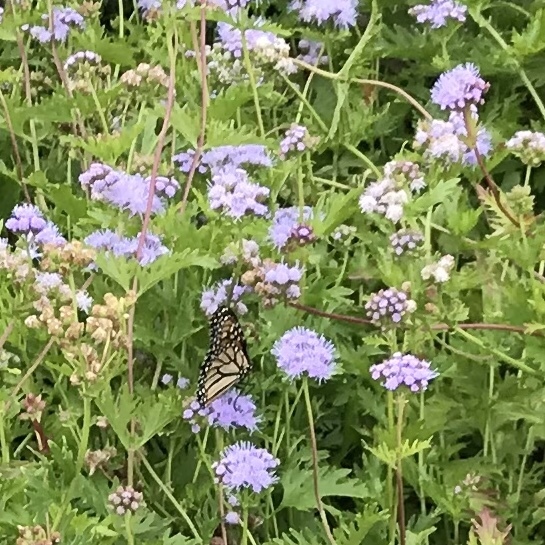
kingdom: Animalia
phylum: Arthropoda
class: Insecta
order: Lepidoptera
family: Nymphalidae
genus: Danaus
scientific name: Danaus plexippus
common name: Monarch
